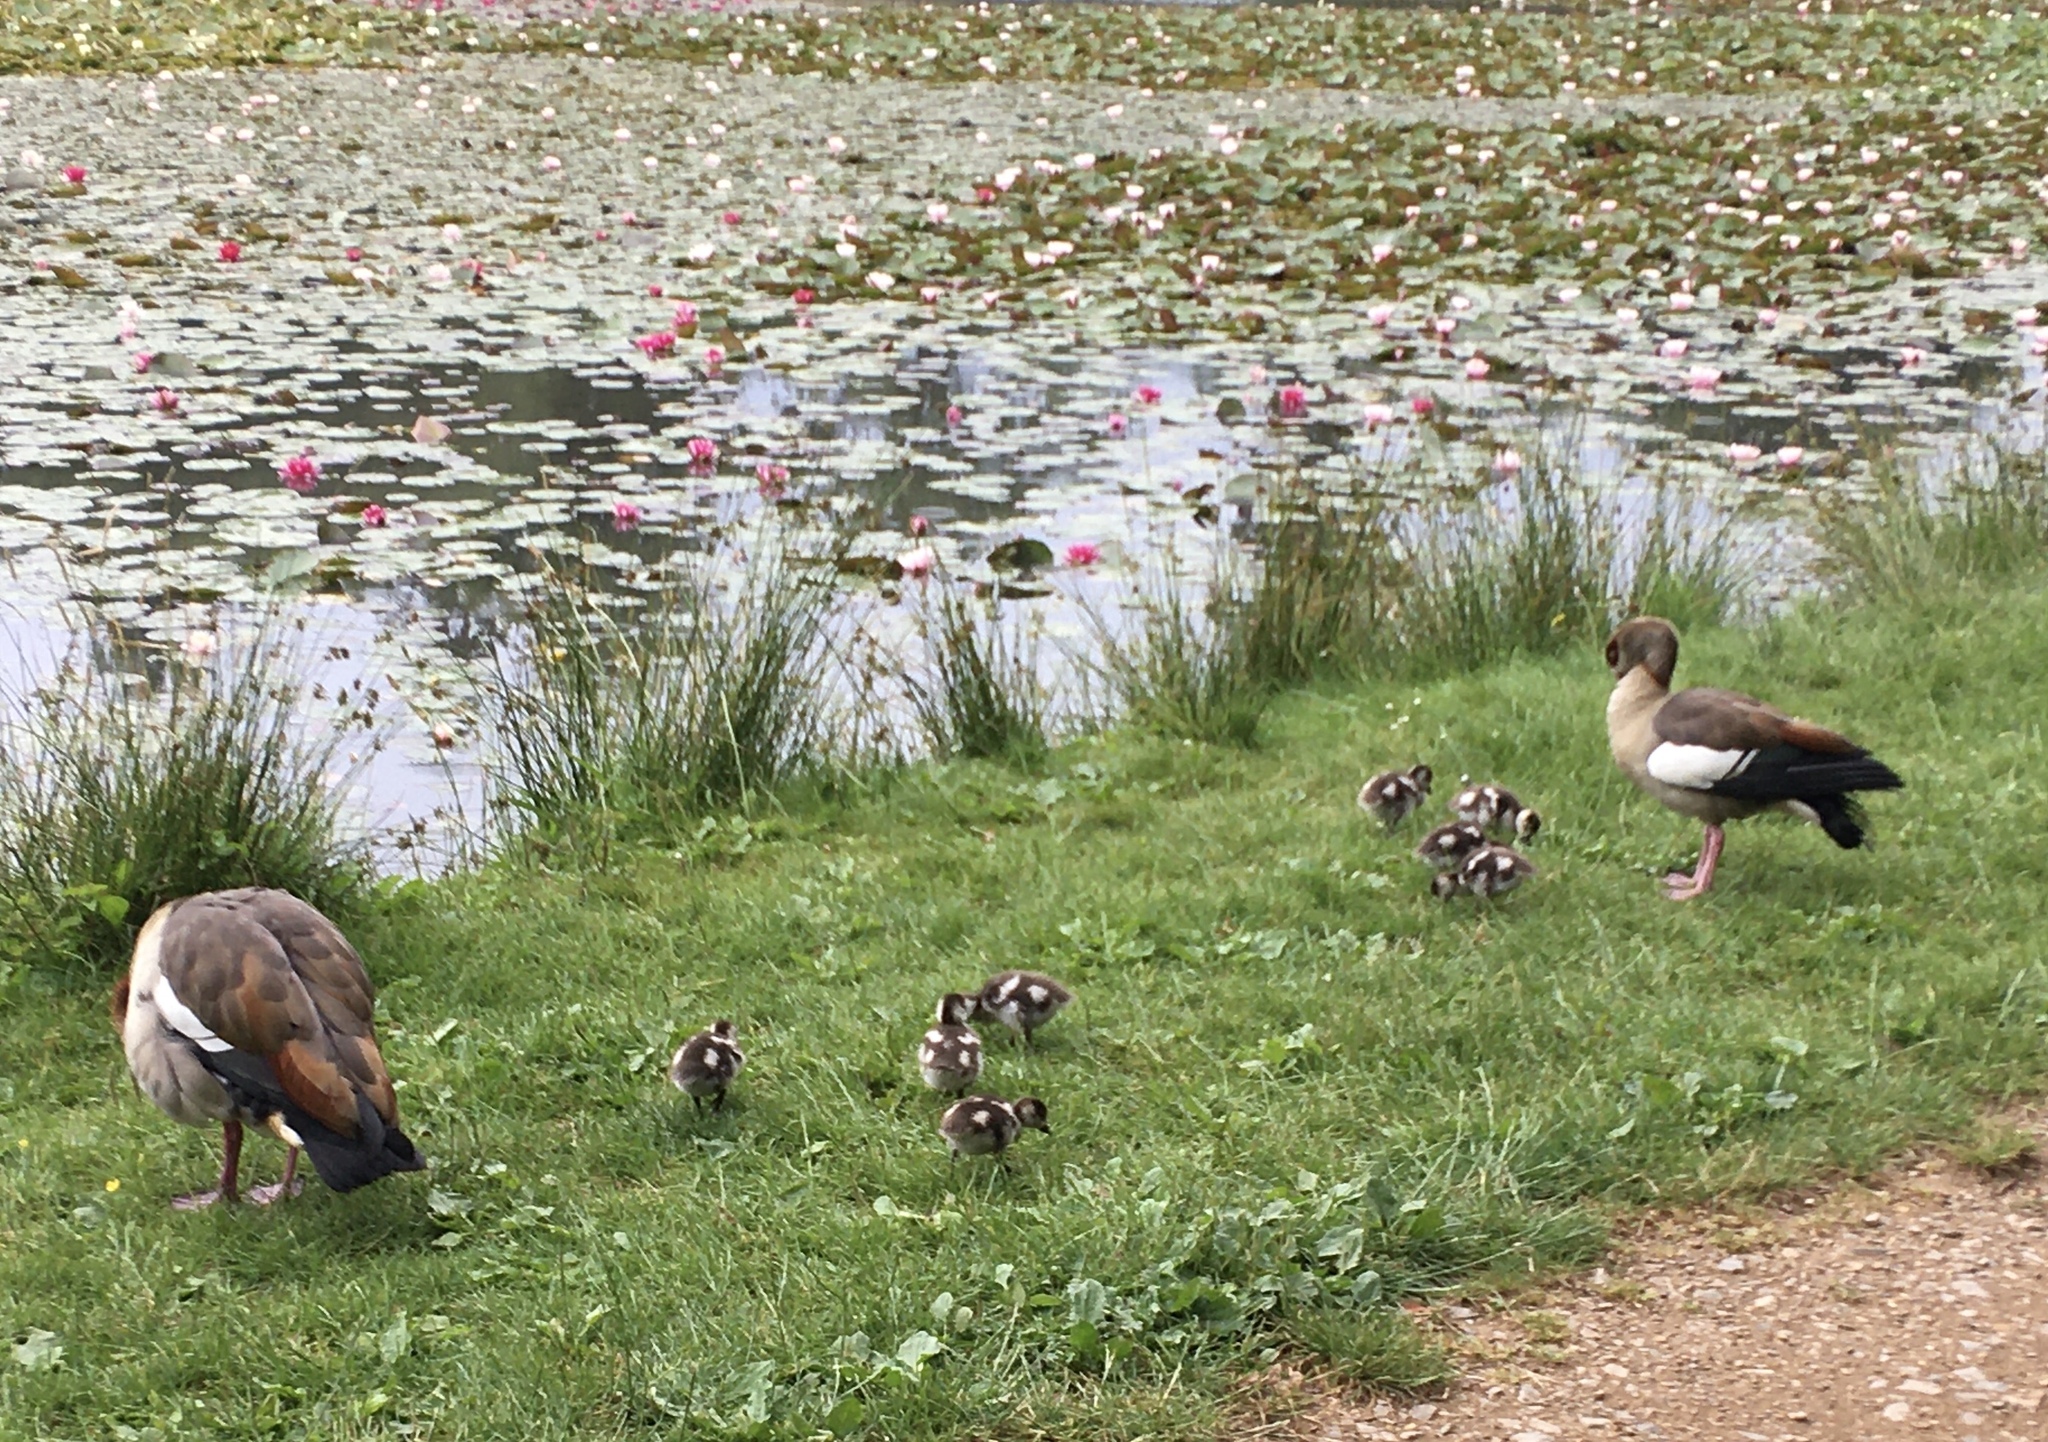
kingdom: Animalia
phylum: Chordata
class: Aves
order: Anseriformes
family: Anatidae
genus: Alopochen
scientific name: Alopochen aegyptiaca
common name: Egyptian goose
